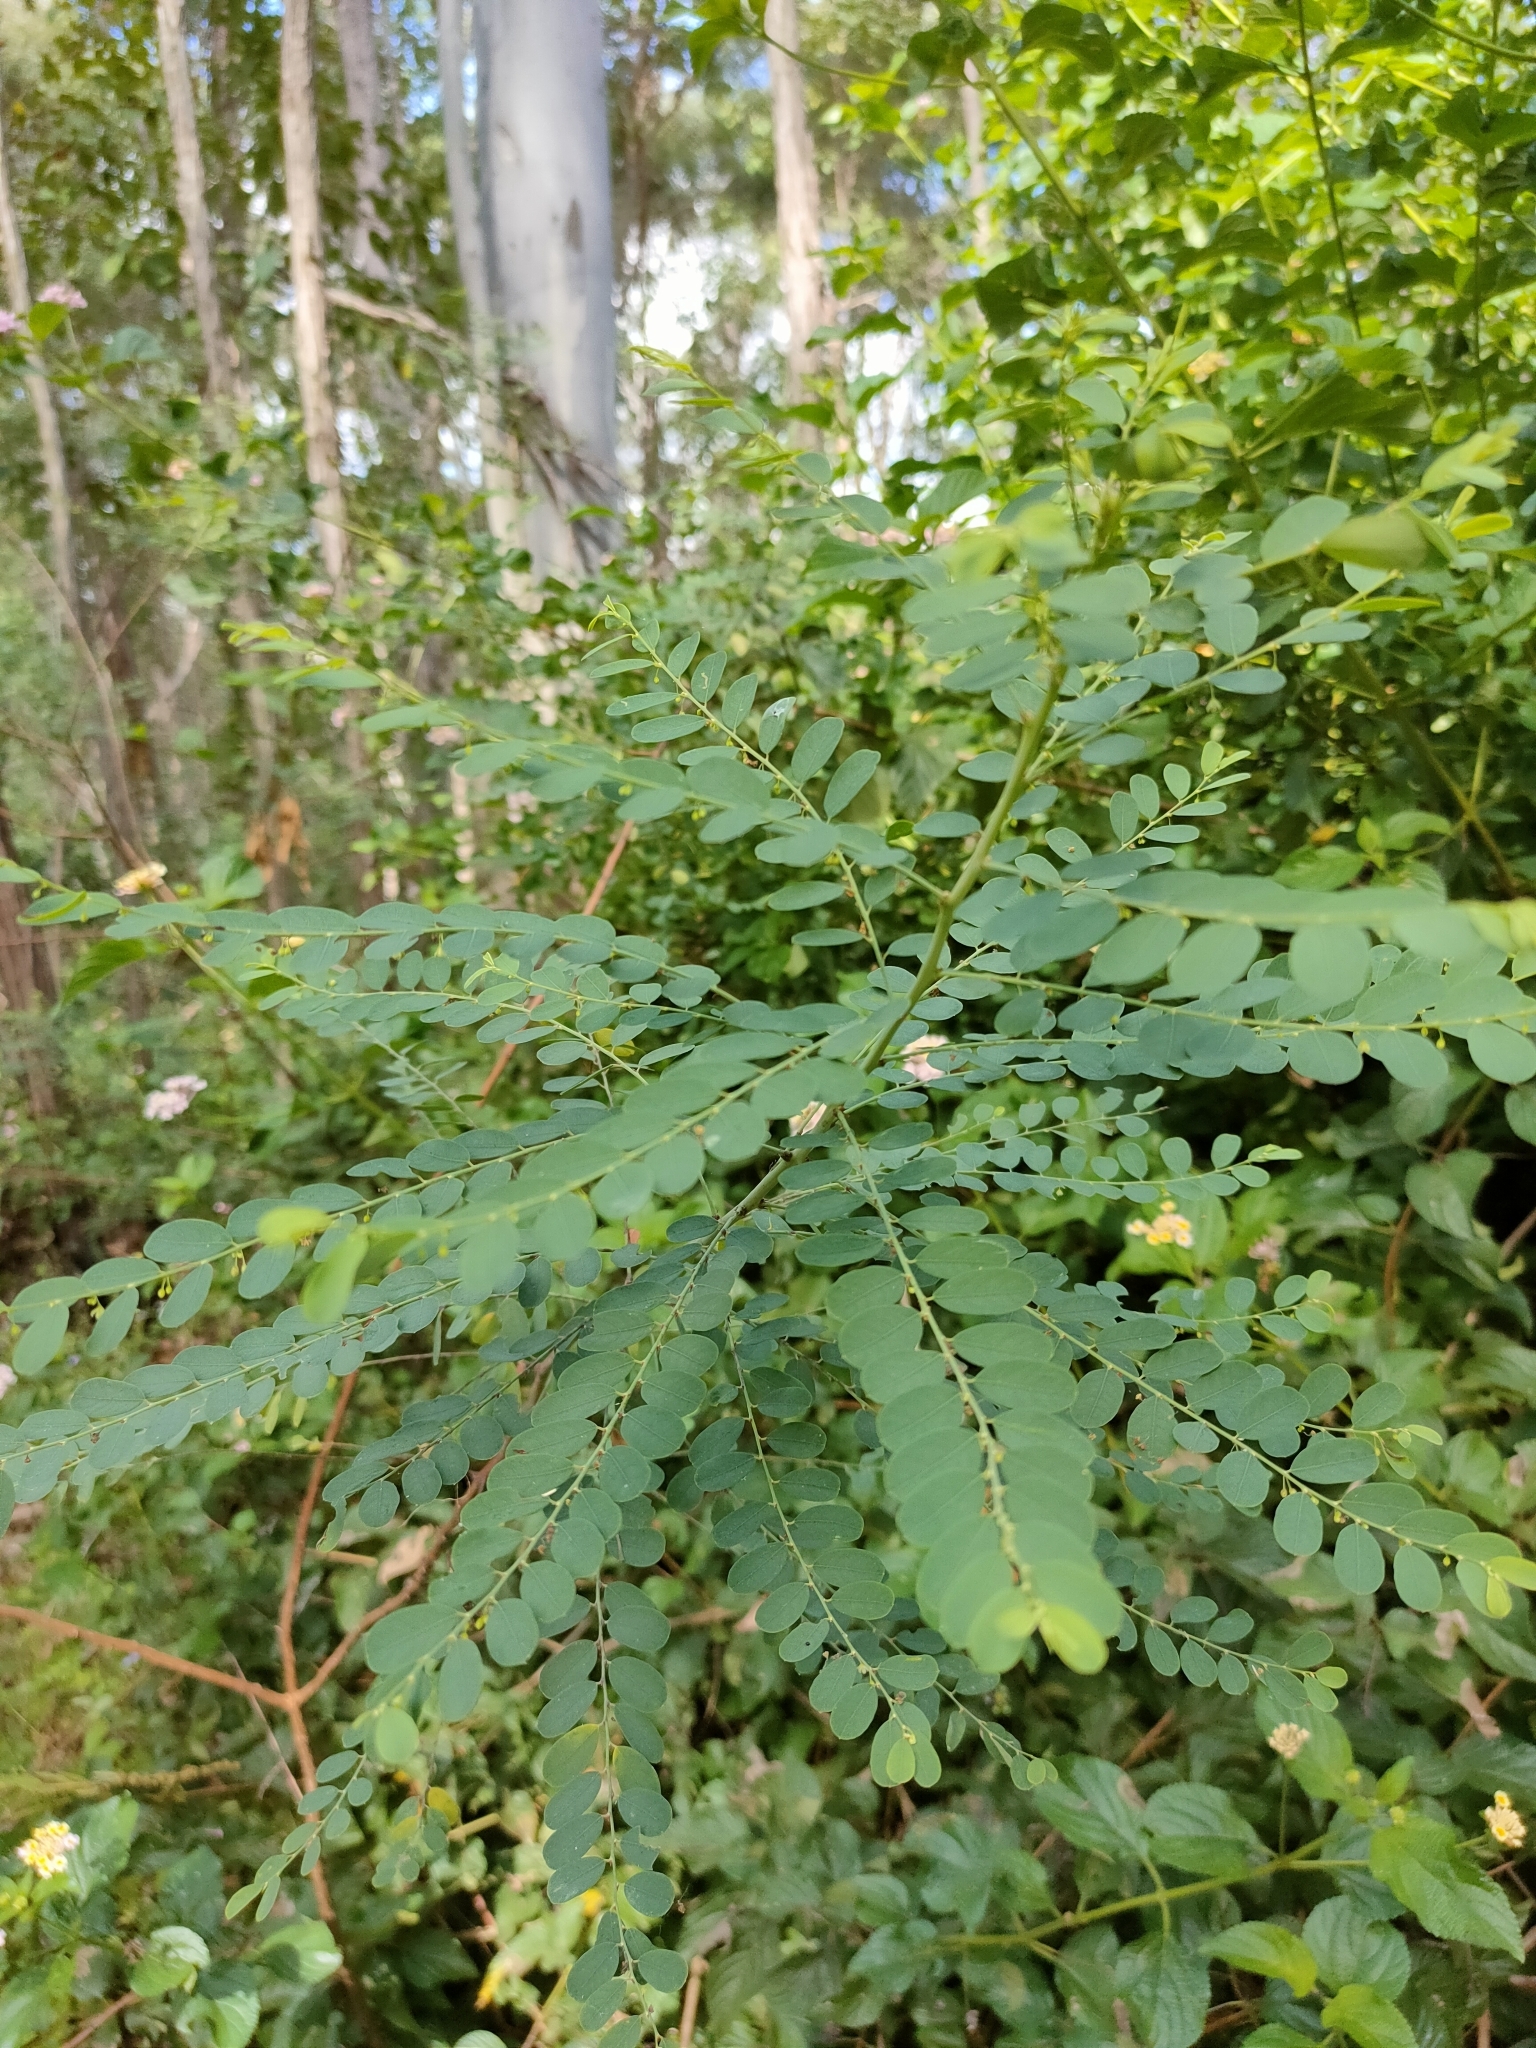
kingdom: Plantae
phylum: Tracheophyta
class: Magnoliopsida
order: Malpighiales
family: Phyllanthaceae
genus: Phyllanthus
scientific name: Phyllanthus gunnii
